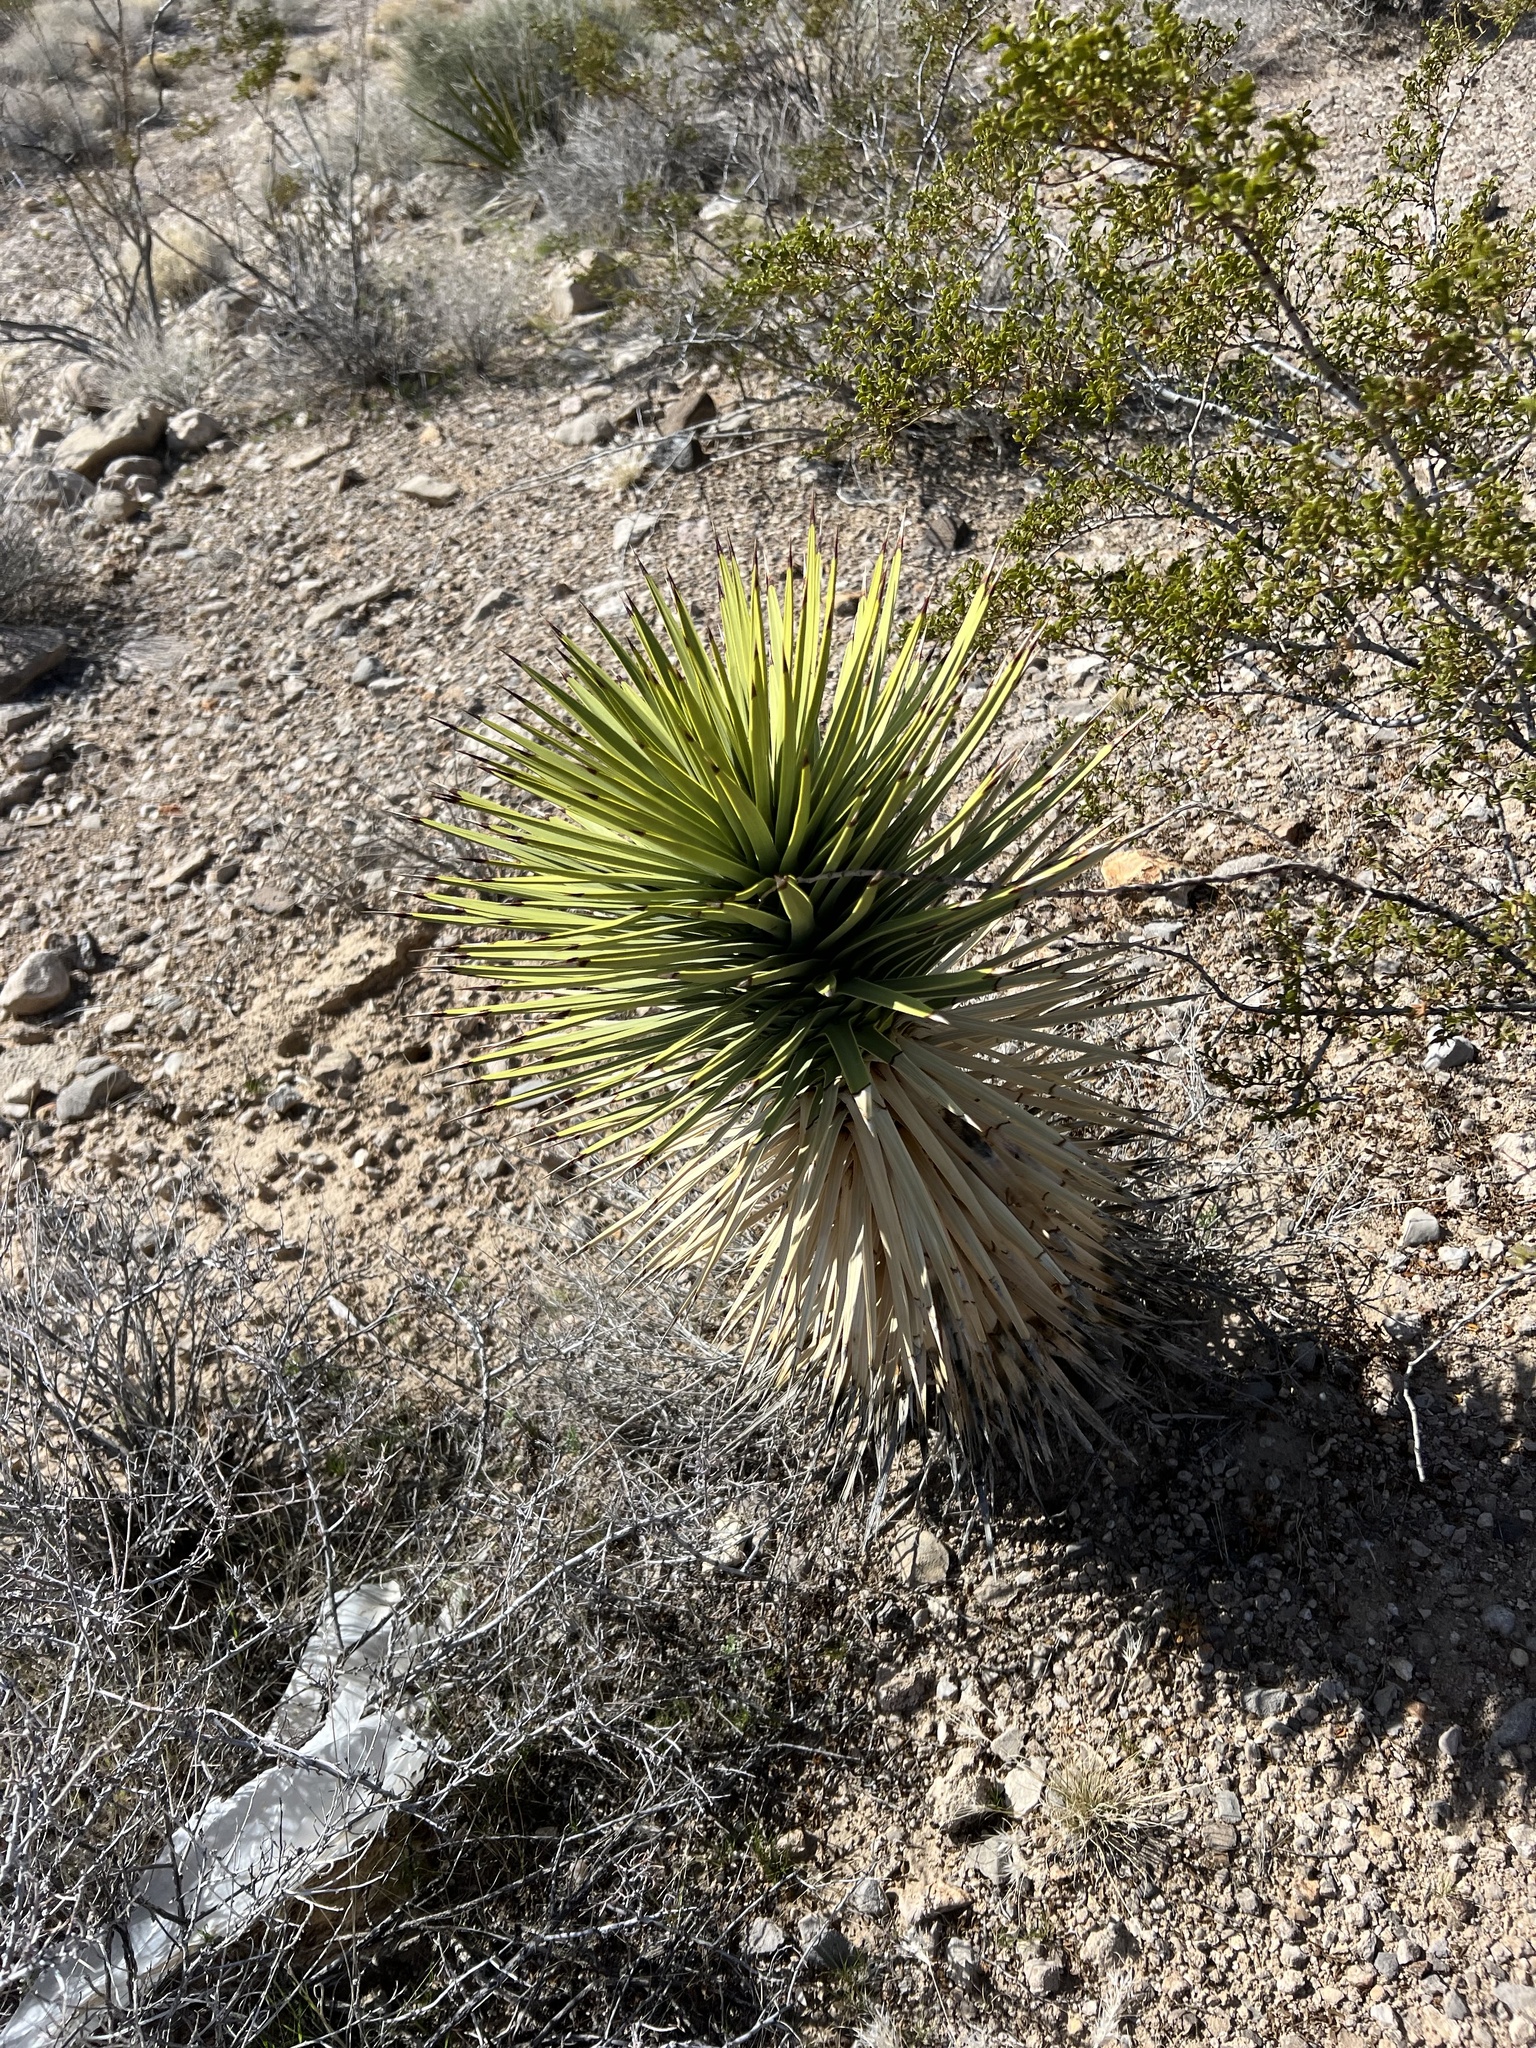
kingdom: Plantae
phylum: Tracheophyta
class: Liliopsida
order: Asparagales
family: Asparagaceae
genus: Yucca
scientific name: Yucca brevifolia
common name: Joshua tree
